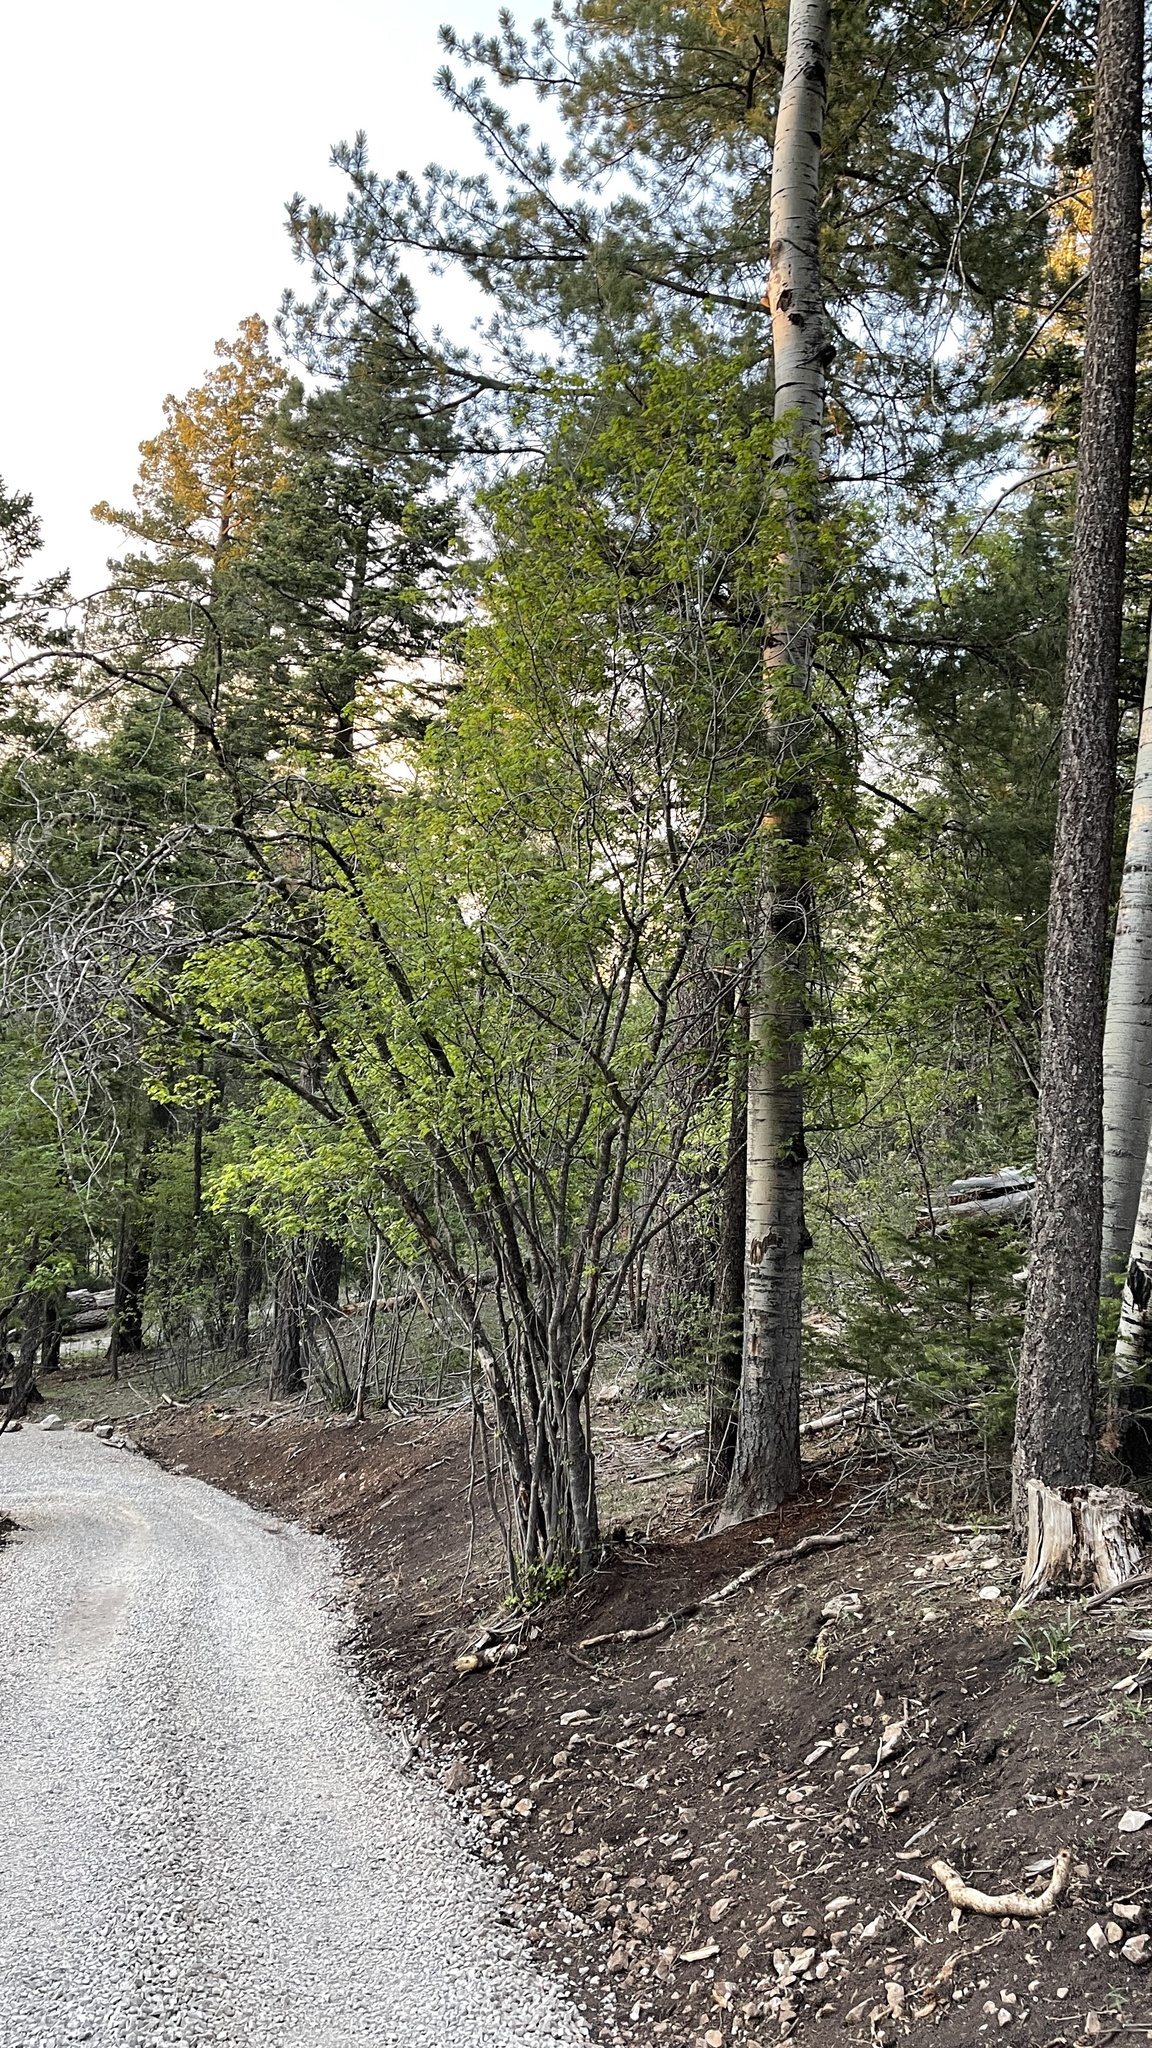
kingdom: Plantae
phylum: Tracheophyta
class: Magnoliopsida
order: Sapindales
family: Sapindaceae
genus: Acer
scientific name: Acer glabrum
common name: Rocky mountain maple
